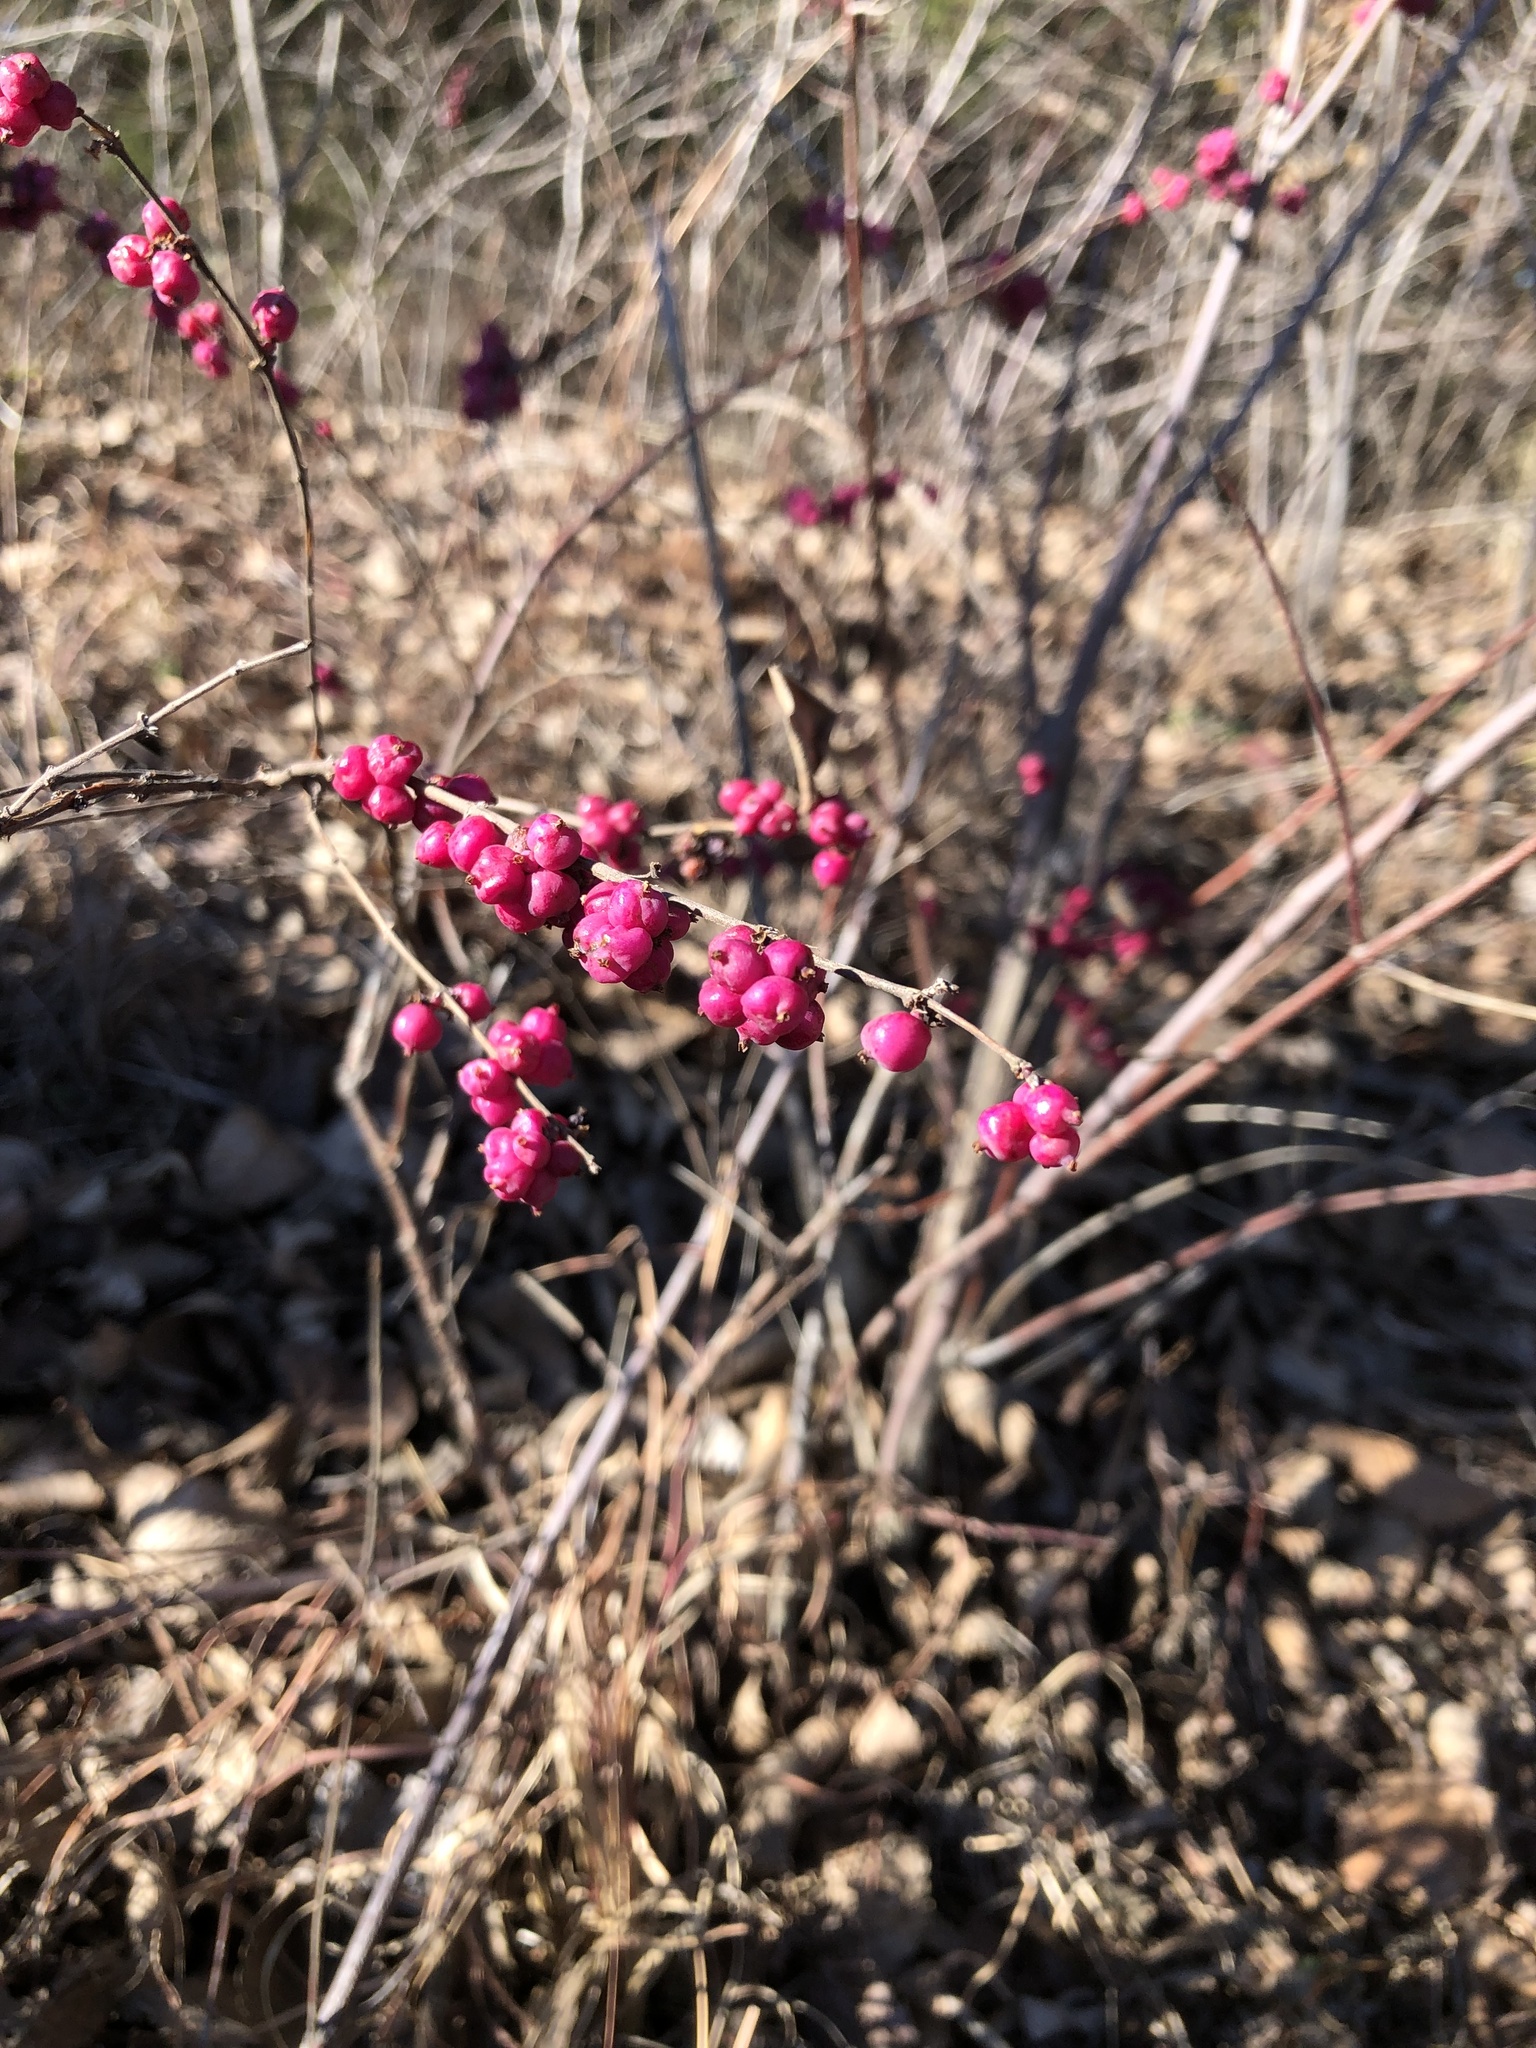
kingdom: Plantae
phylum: Tracheophyta
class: Magnoliopsida
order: Dipsacales
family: Caprifoliaceae
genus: Symphoricarpos
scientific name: Symphoricarpos orbiculatus
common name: Coralberry
